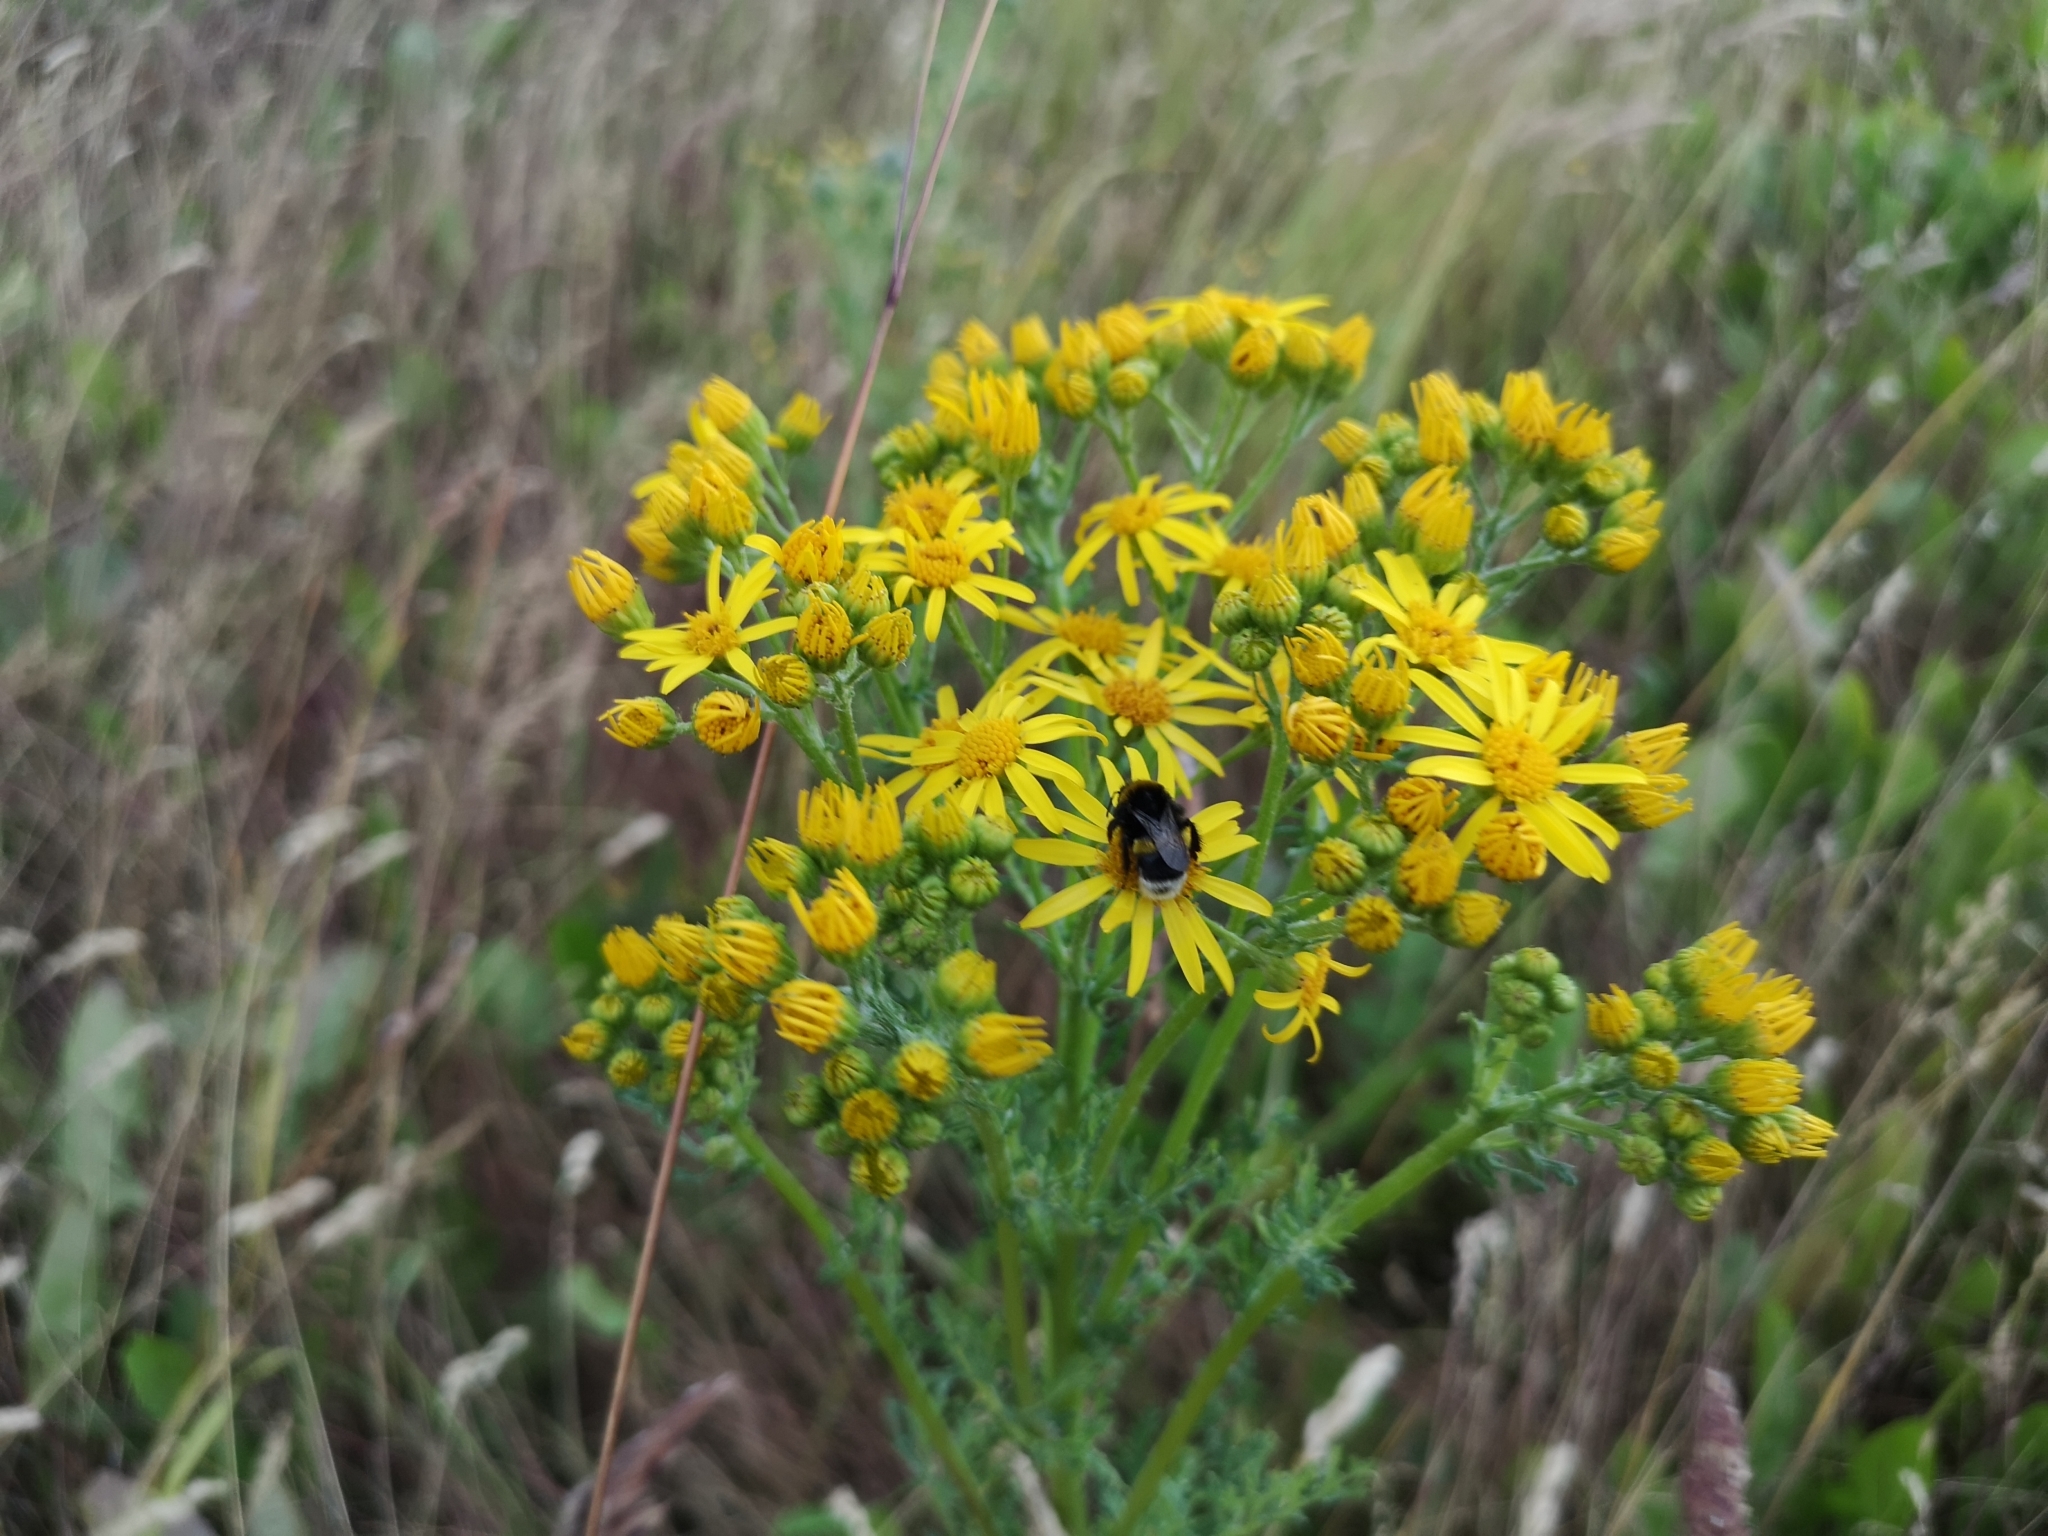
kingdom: Plantae
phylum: Tracheophyta
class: Magnoliopsida
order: Asterales
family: Asteraceae
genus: Jacobaea
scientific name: Jacobaea vulgaris
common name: Stinking willie
